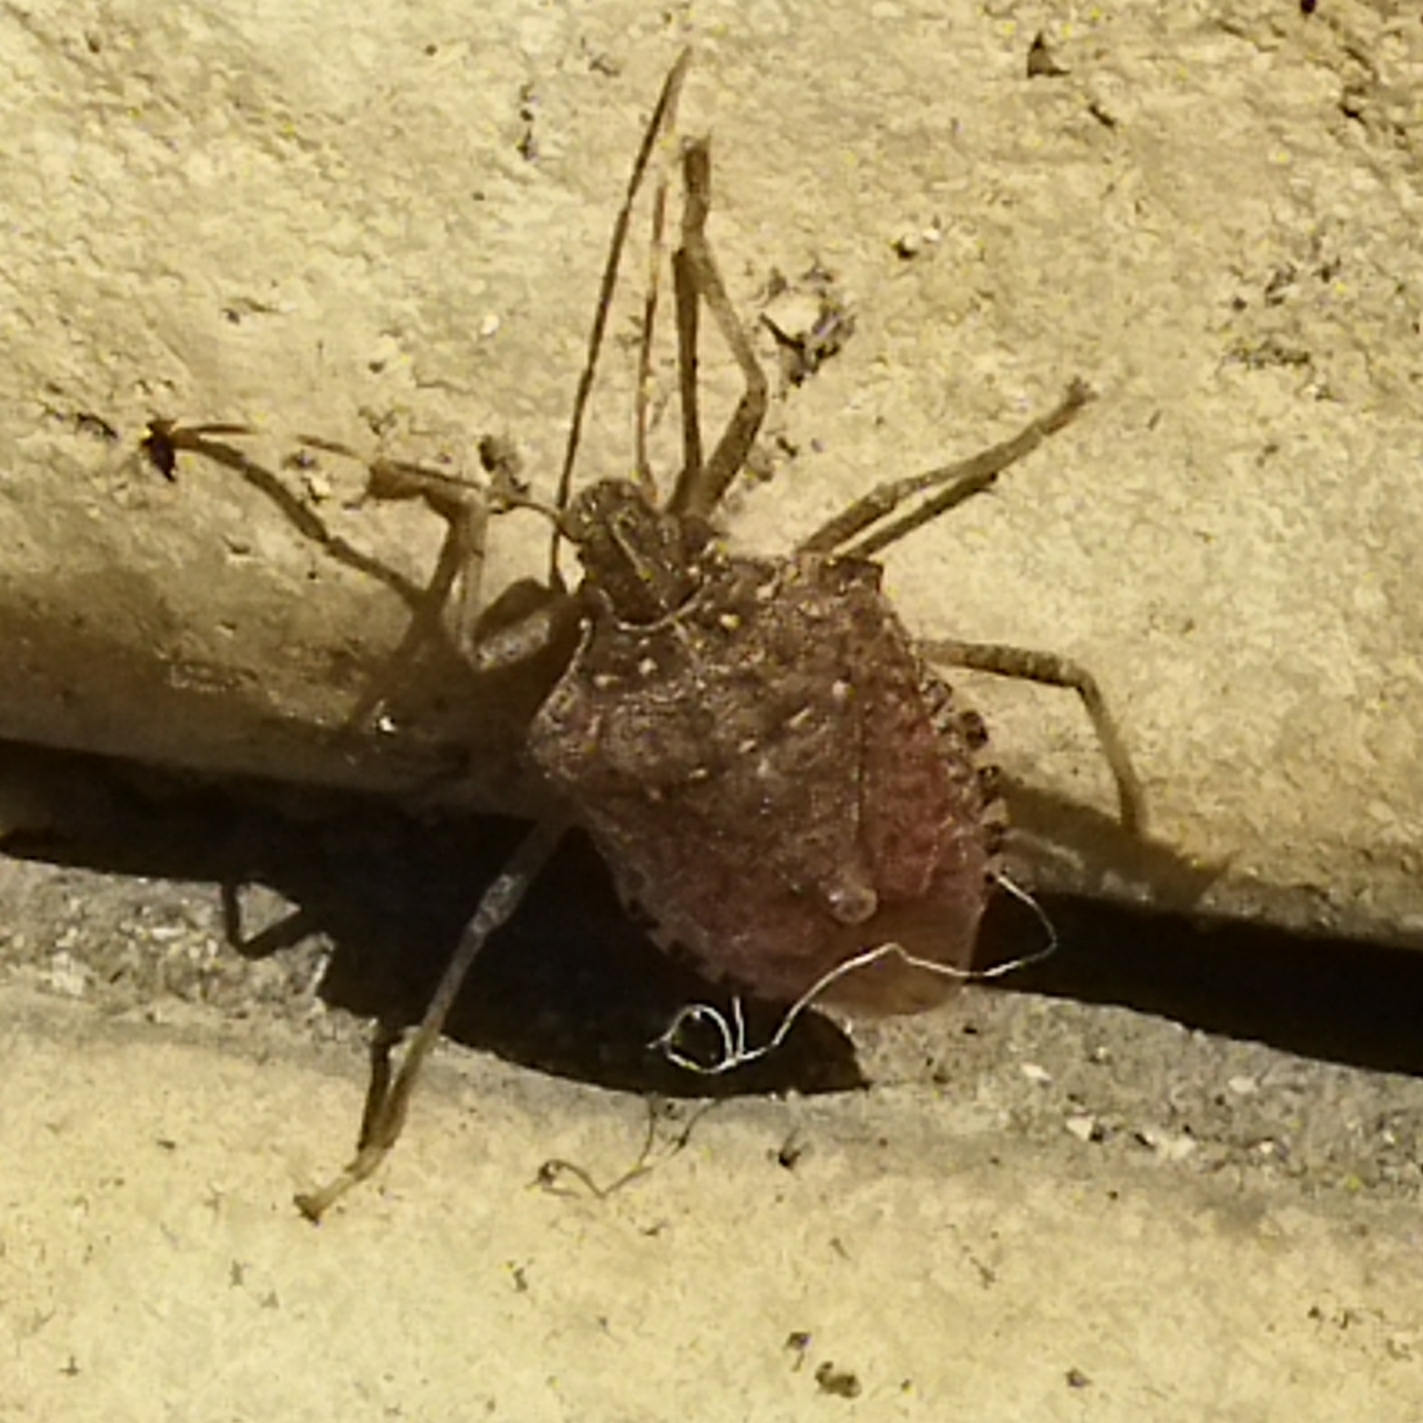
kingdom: Animalia
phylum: Arthropoda
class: Insecta
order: Hemiptera
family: Pentatomidae
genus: Halyomorpha
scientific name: Halyomorpha halys
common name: Brown marmorated stink bug
